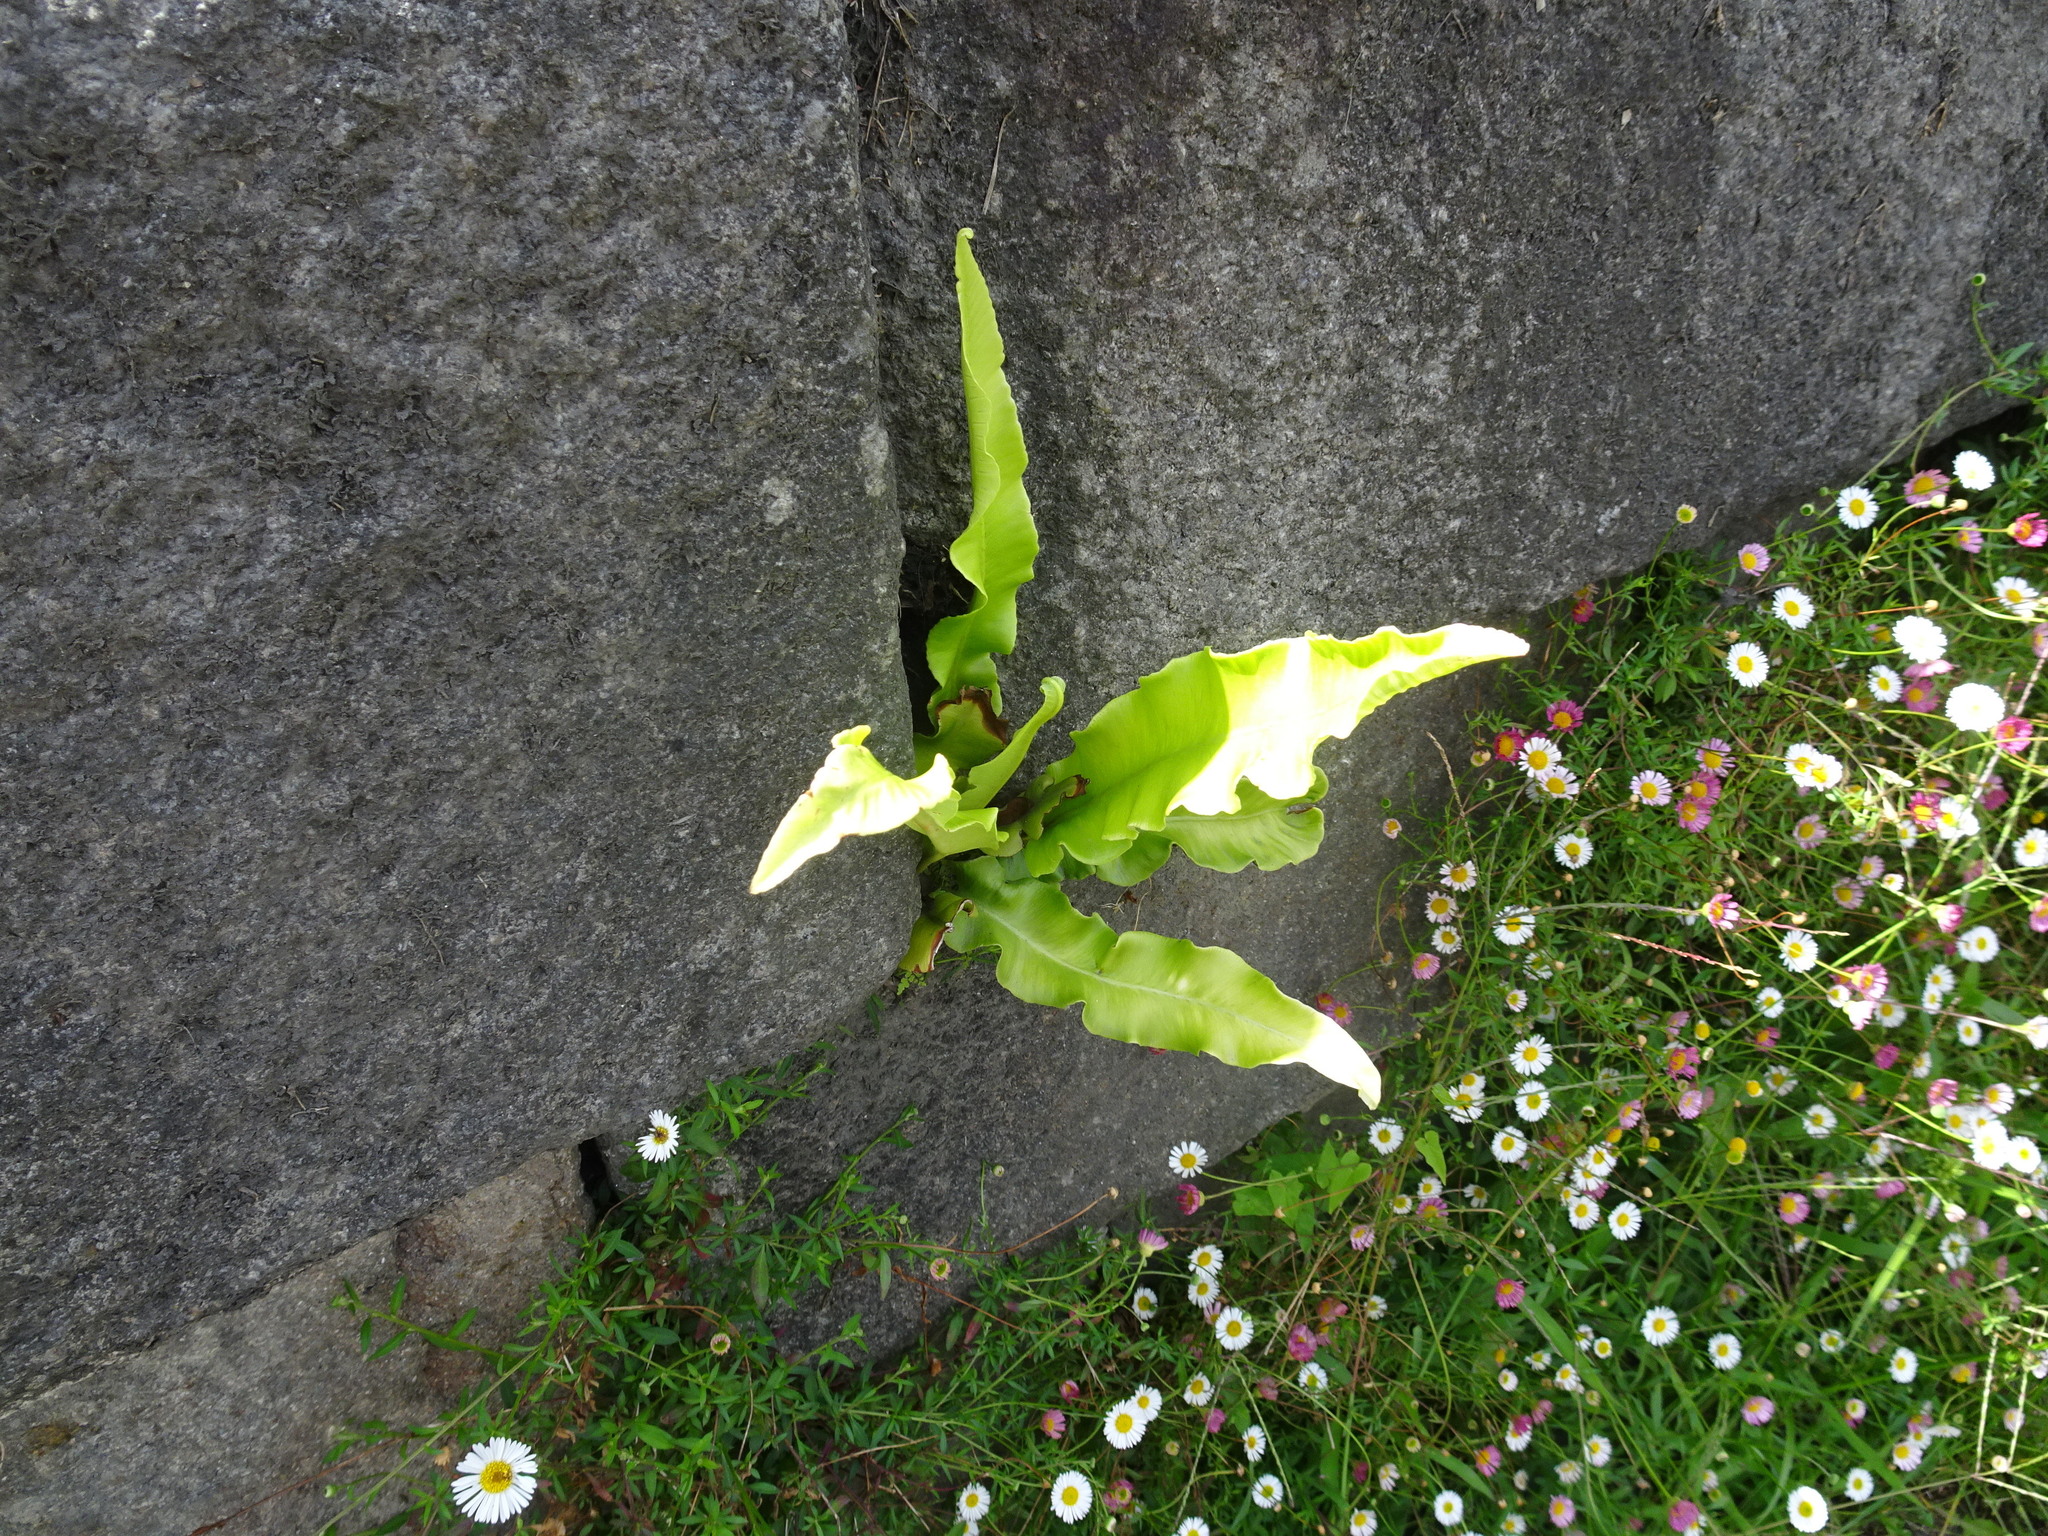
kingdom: Plantae
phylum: Tracheophyta
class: Polypodiopsida
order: Polypodiales
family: Aspleniaceae
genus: Asplenium
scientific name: Asplenium scolopendrium
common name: Hart's-tongue fern
